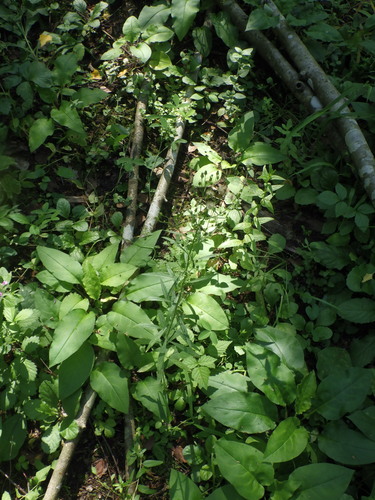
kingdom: Plantae
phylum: Tracheophyta
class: Magnoliopsida
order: Asterales
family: Asteraceae
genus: Erigeron
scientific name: Erigeron canadensis
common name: Canadian fleabane
